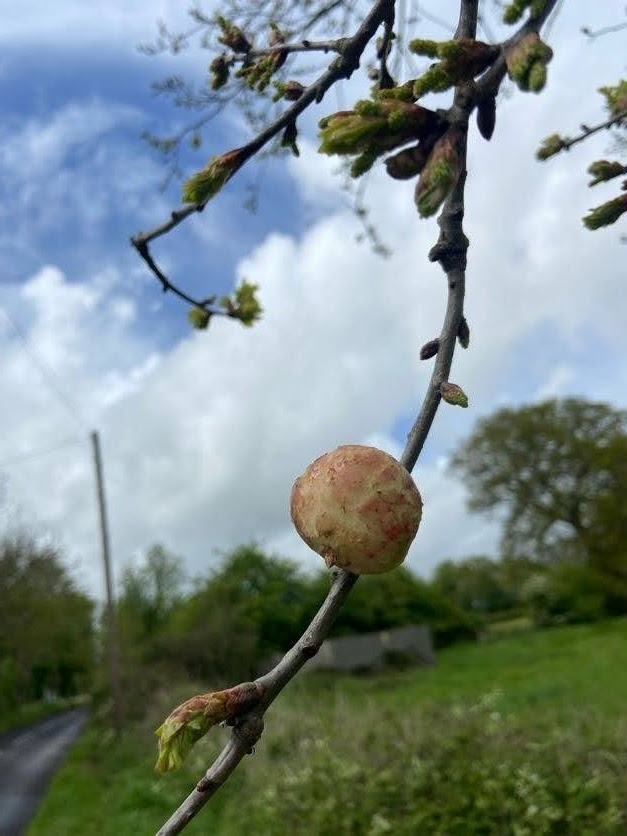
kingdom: Animalia
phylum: Arthropoda
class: Insecta
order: Hymenoptera
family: Cynipidae
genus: Biorhiza
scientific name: Biorhiza pallida
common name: Oak apple
